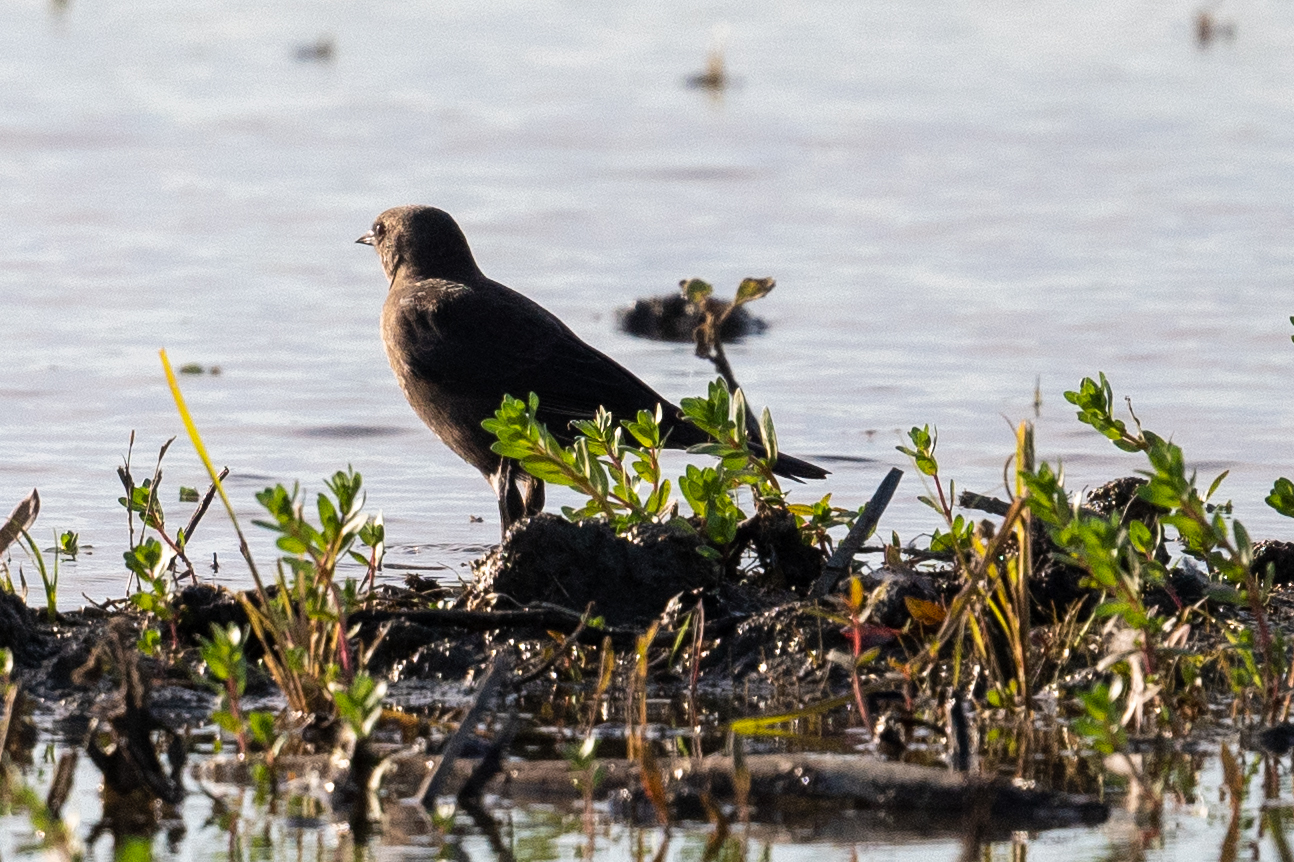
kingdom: Animalia
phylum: Chordata
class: Aves
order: Passeriformes
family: Icteridae
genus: Euphagus
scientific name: Euphagus cyanocephalus
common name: Brewer's blackbird
